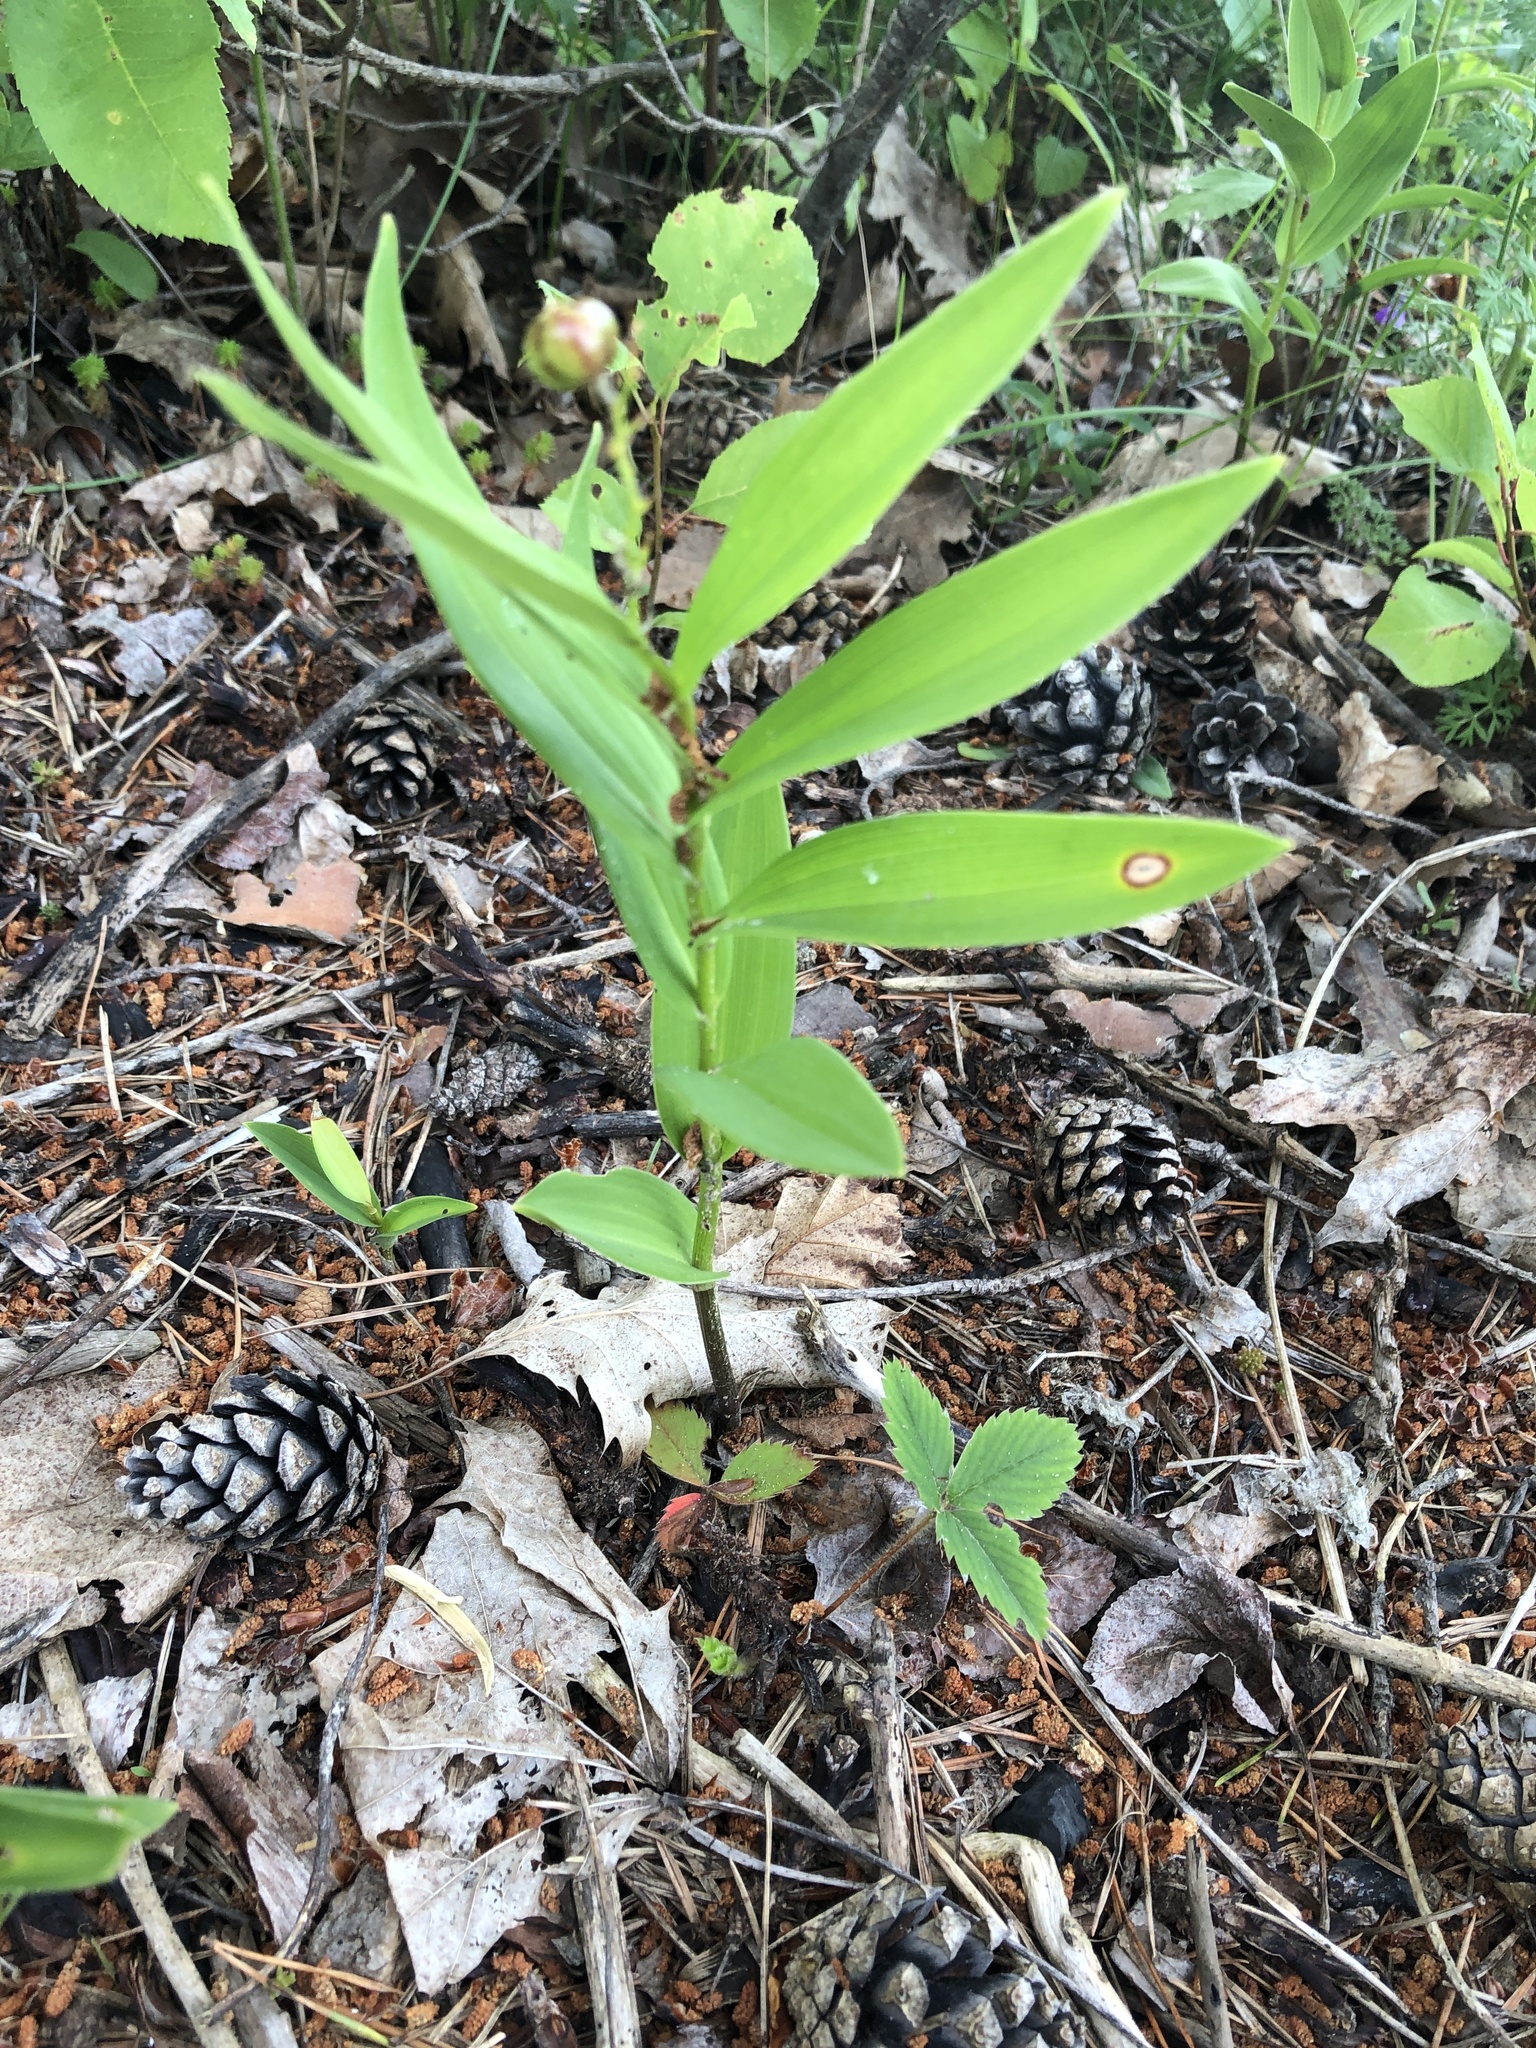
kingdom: Plantae
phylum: Tracheophyta
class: Liliopsida
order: Asparagales
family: Asparagaceae
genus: Maianthemum
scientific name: Maianthemum stellatum
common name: Little false solomon's seal
